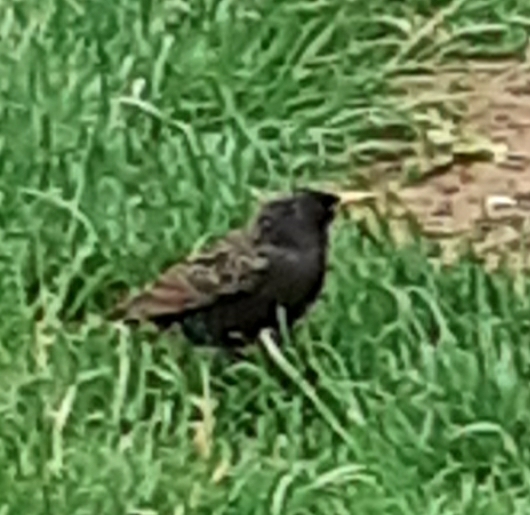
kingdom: Animalia
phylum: Chordata
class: Aves
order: Passeriformes
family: Sturnidae
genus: Sturnus
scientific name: Sturnus vulgaris
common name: Common starling
